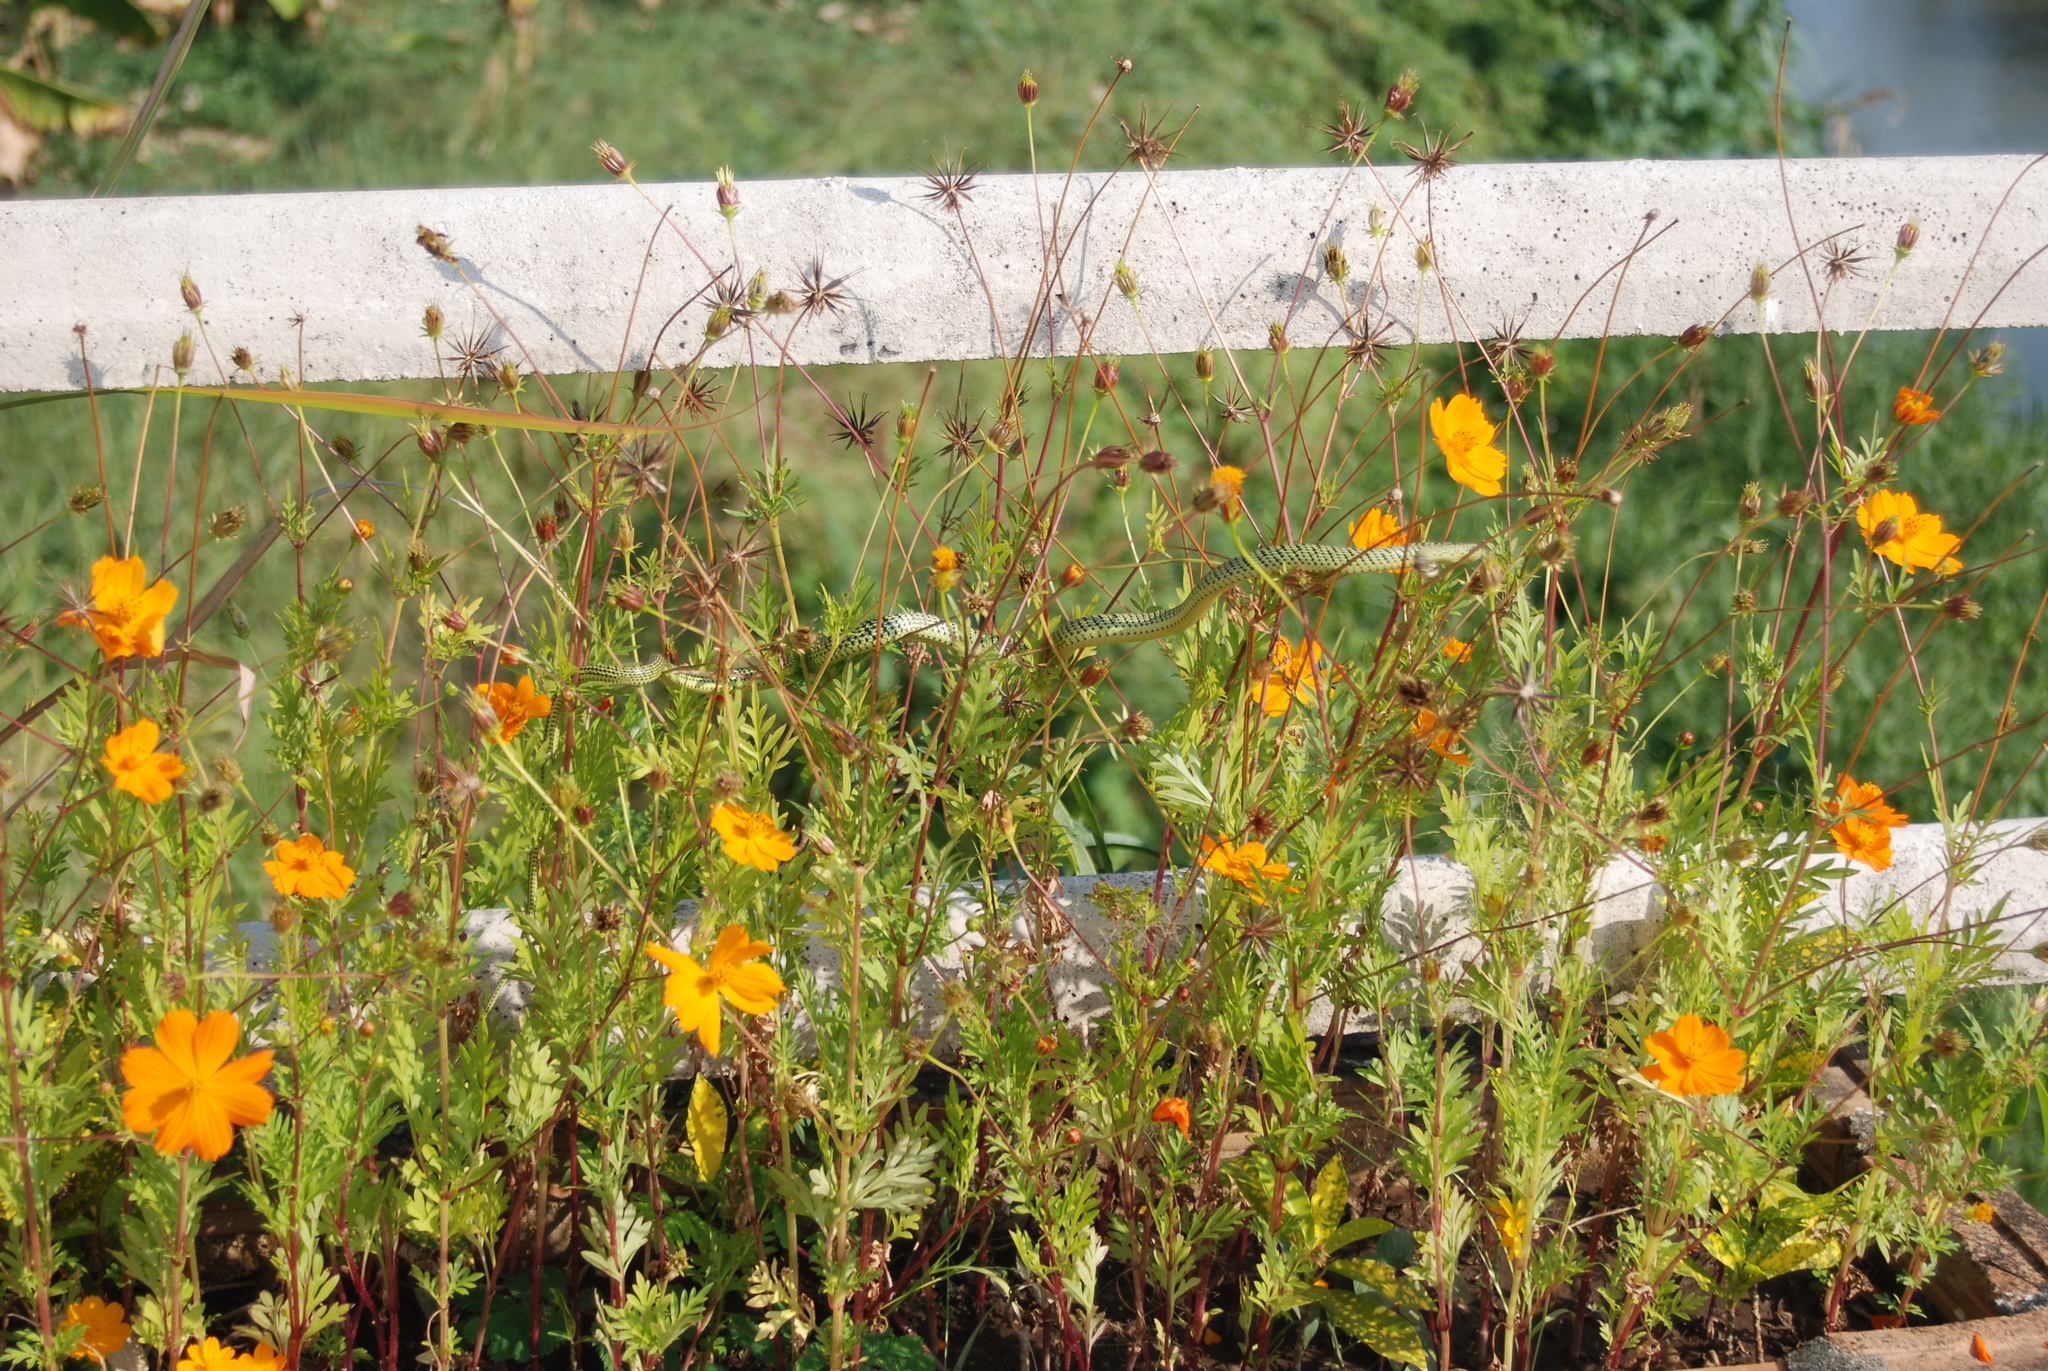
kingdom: Animalia
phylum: Chordata
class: Squamata
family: Colubridae
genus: Chrysopelea
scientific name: Chrysopelea ornata
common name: Golden flying snake
